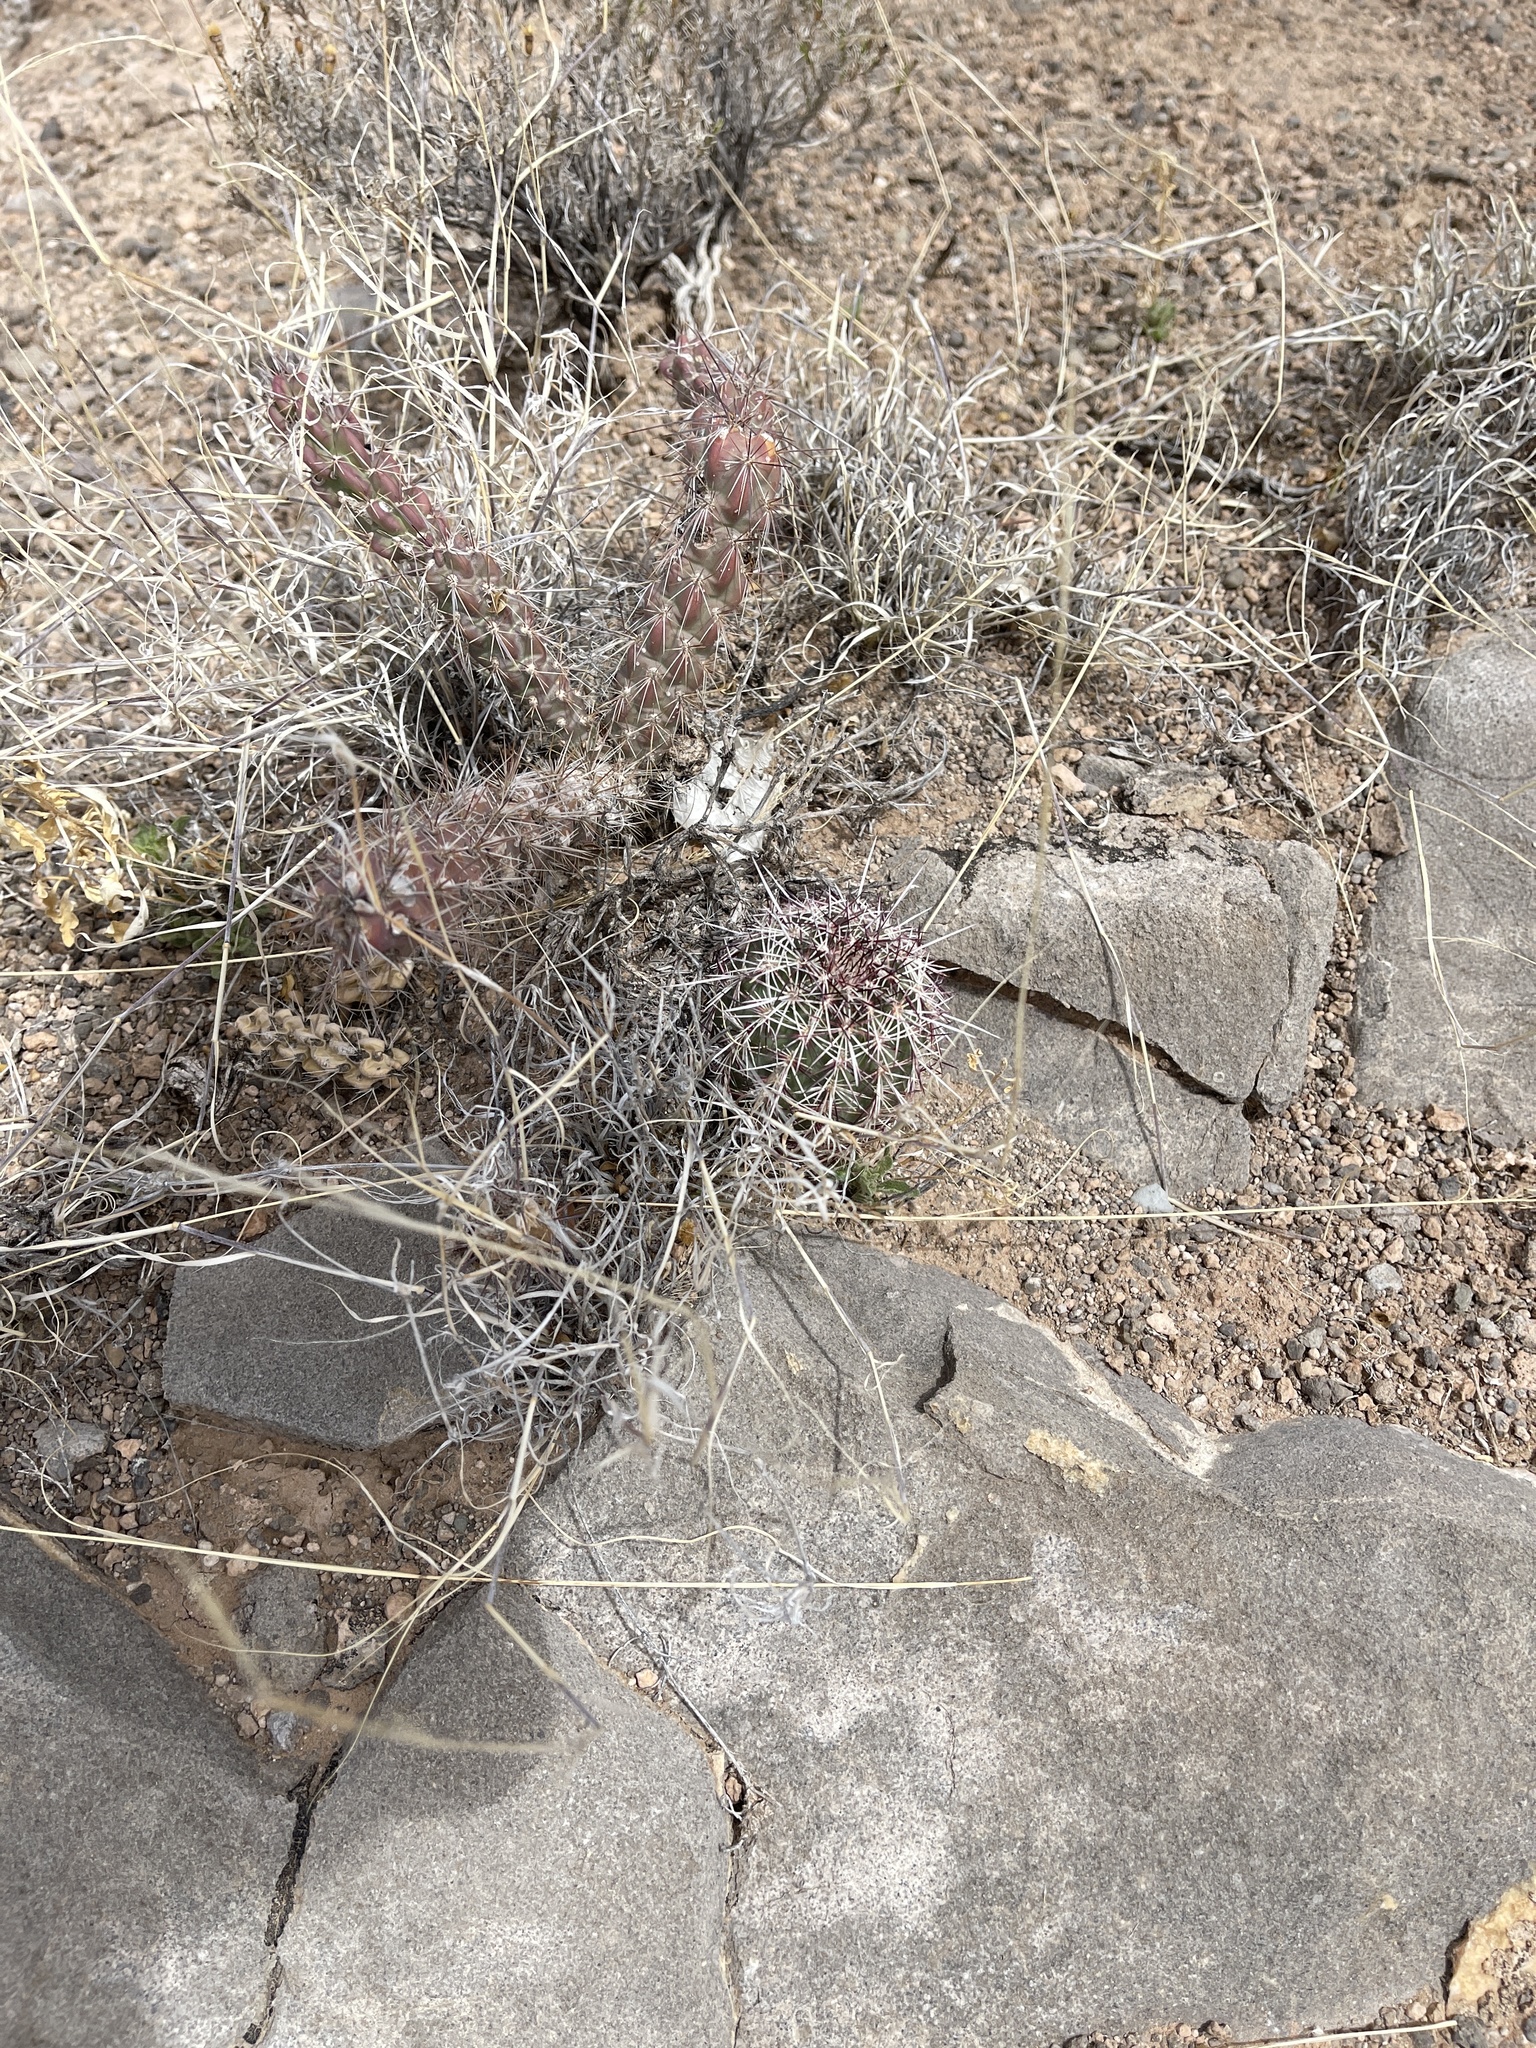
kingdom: Plantae
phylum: Tracheophyta
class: Magnoliopsida
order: Caryophyllales
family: Cactaceae
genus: Echinocereus
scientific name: Echinocereus viridiflorus
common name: Nylon hedgehog cactus
